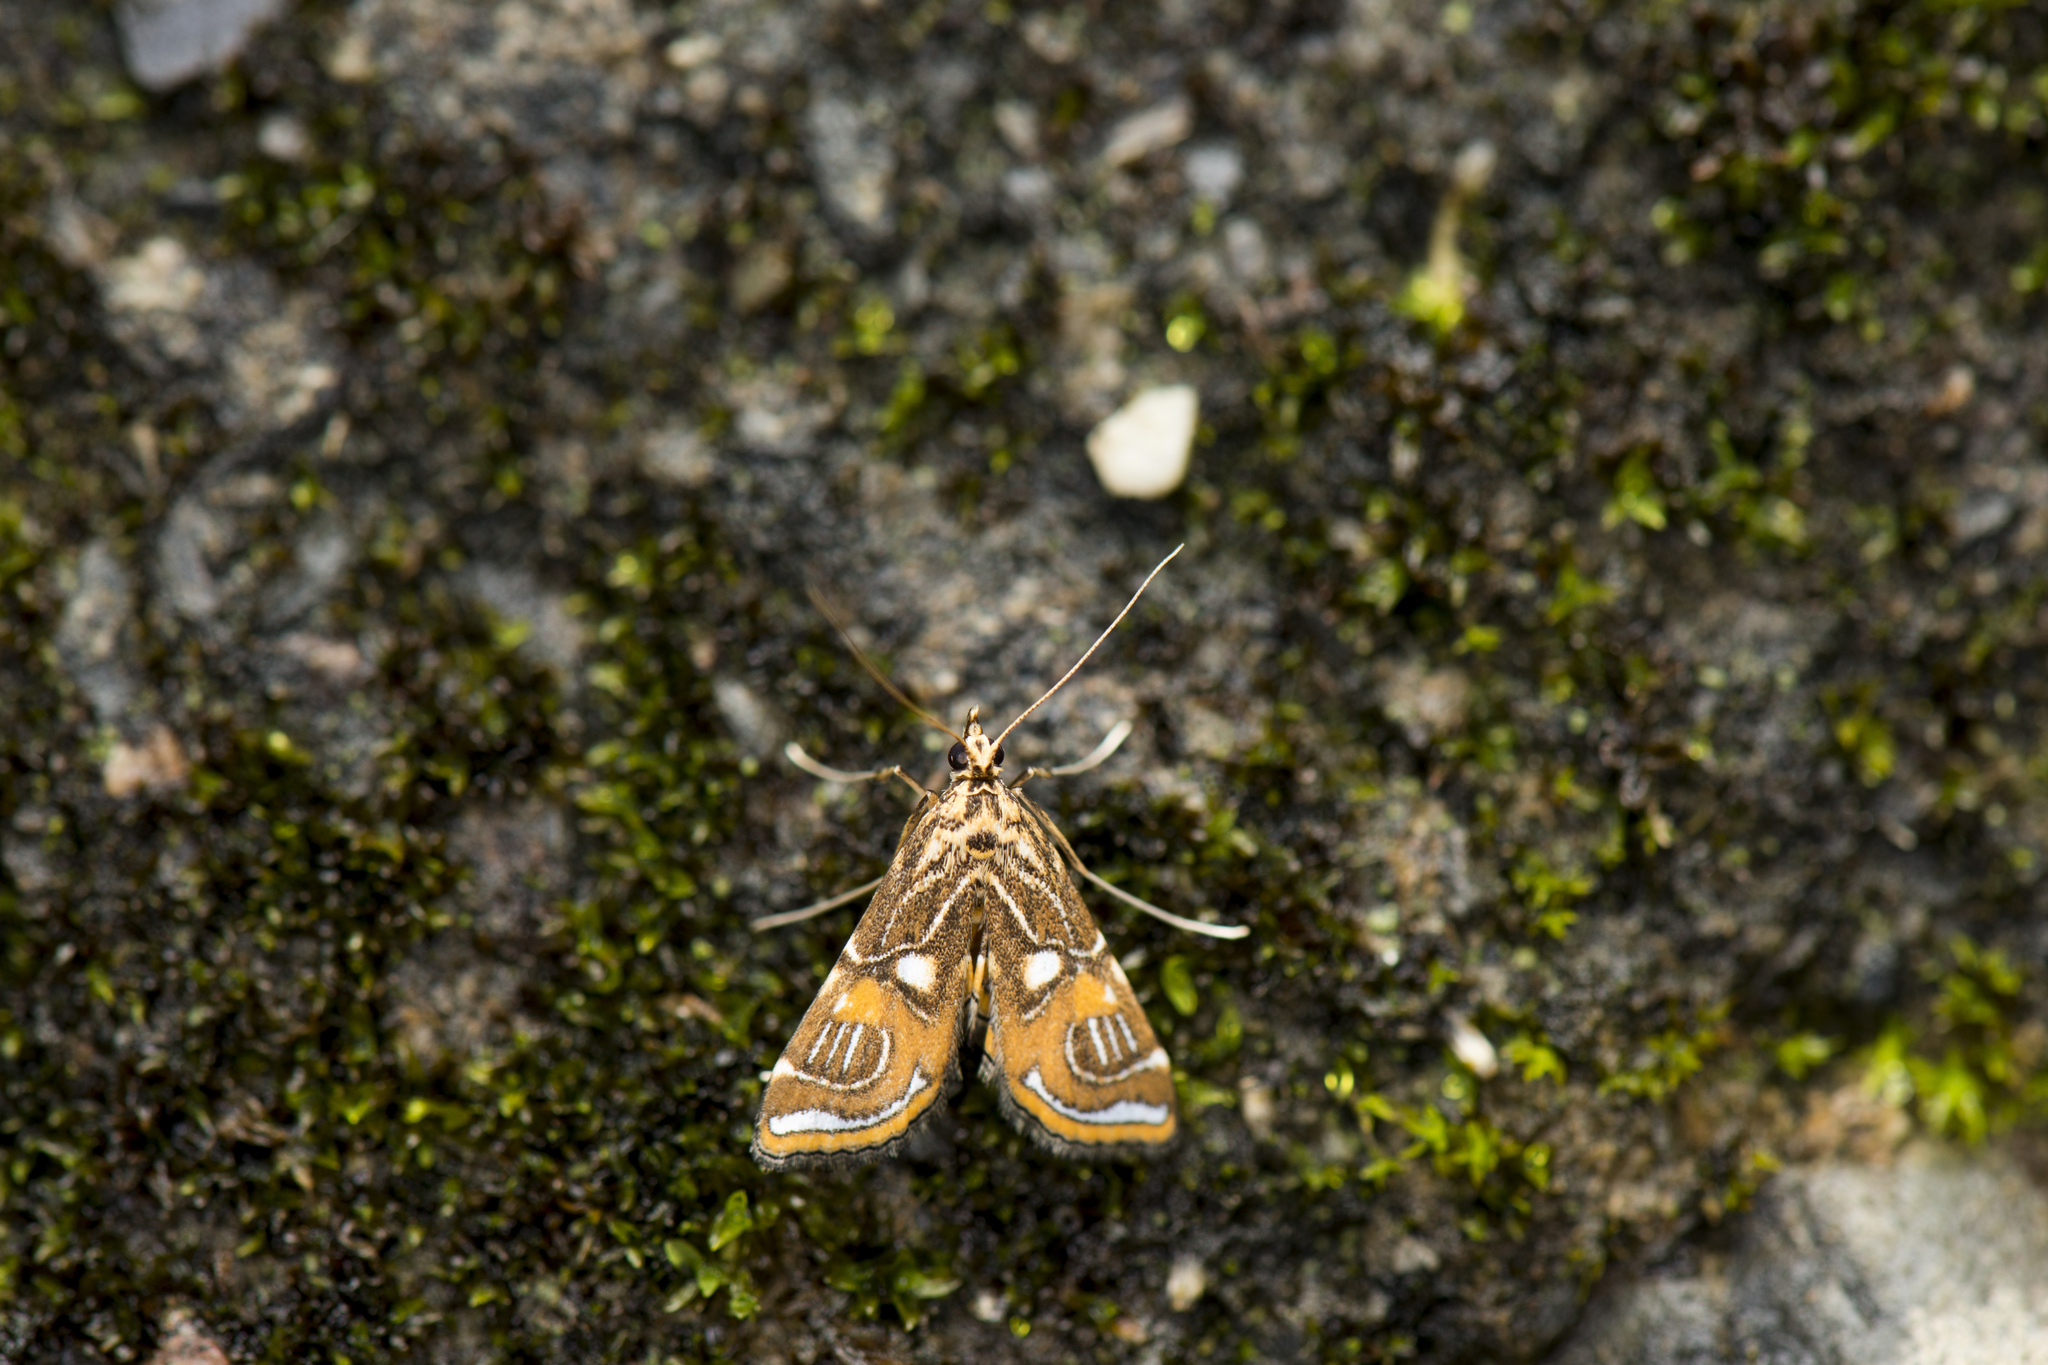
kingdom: Animalia
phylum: Arthropoda
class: Insecta
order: Lepidoptera
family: Crambidae
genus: Paracymoriza
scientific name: Paracymoriza cataclystalis
